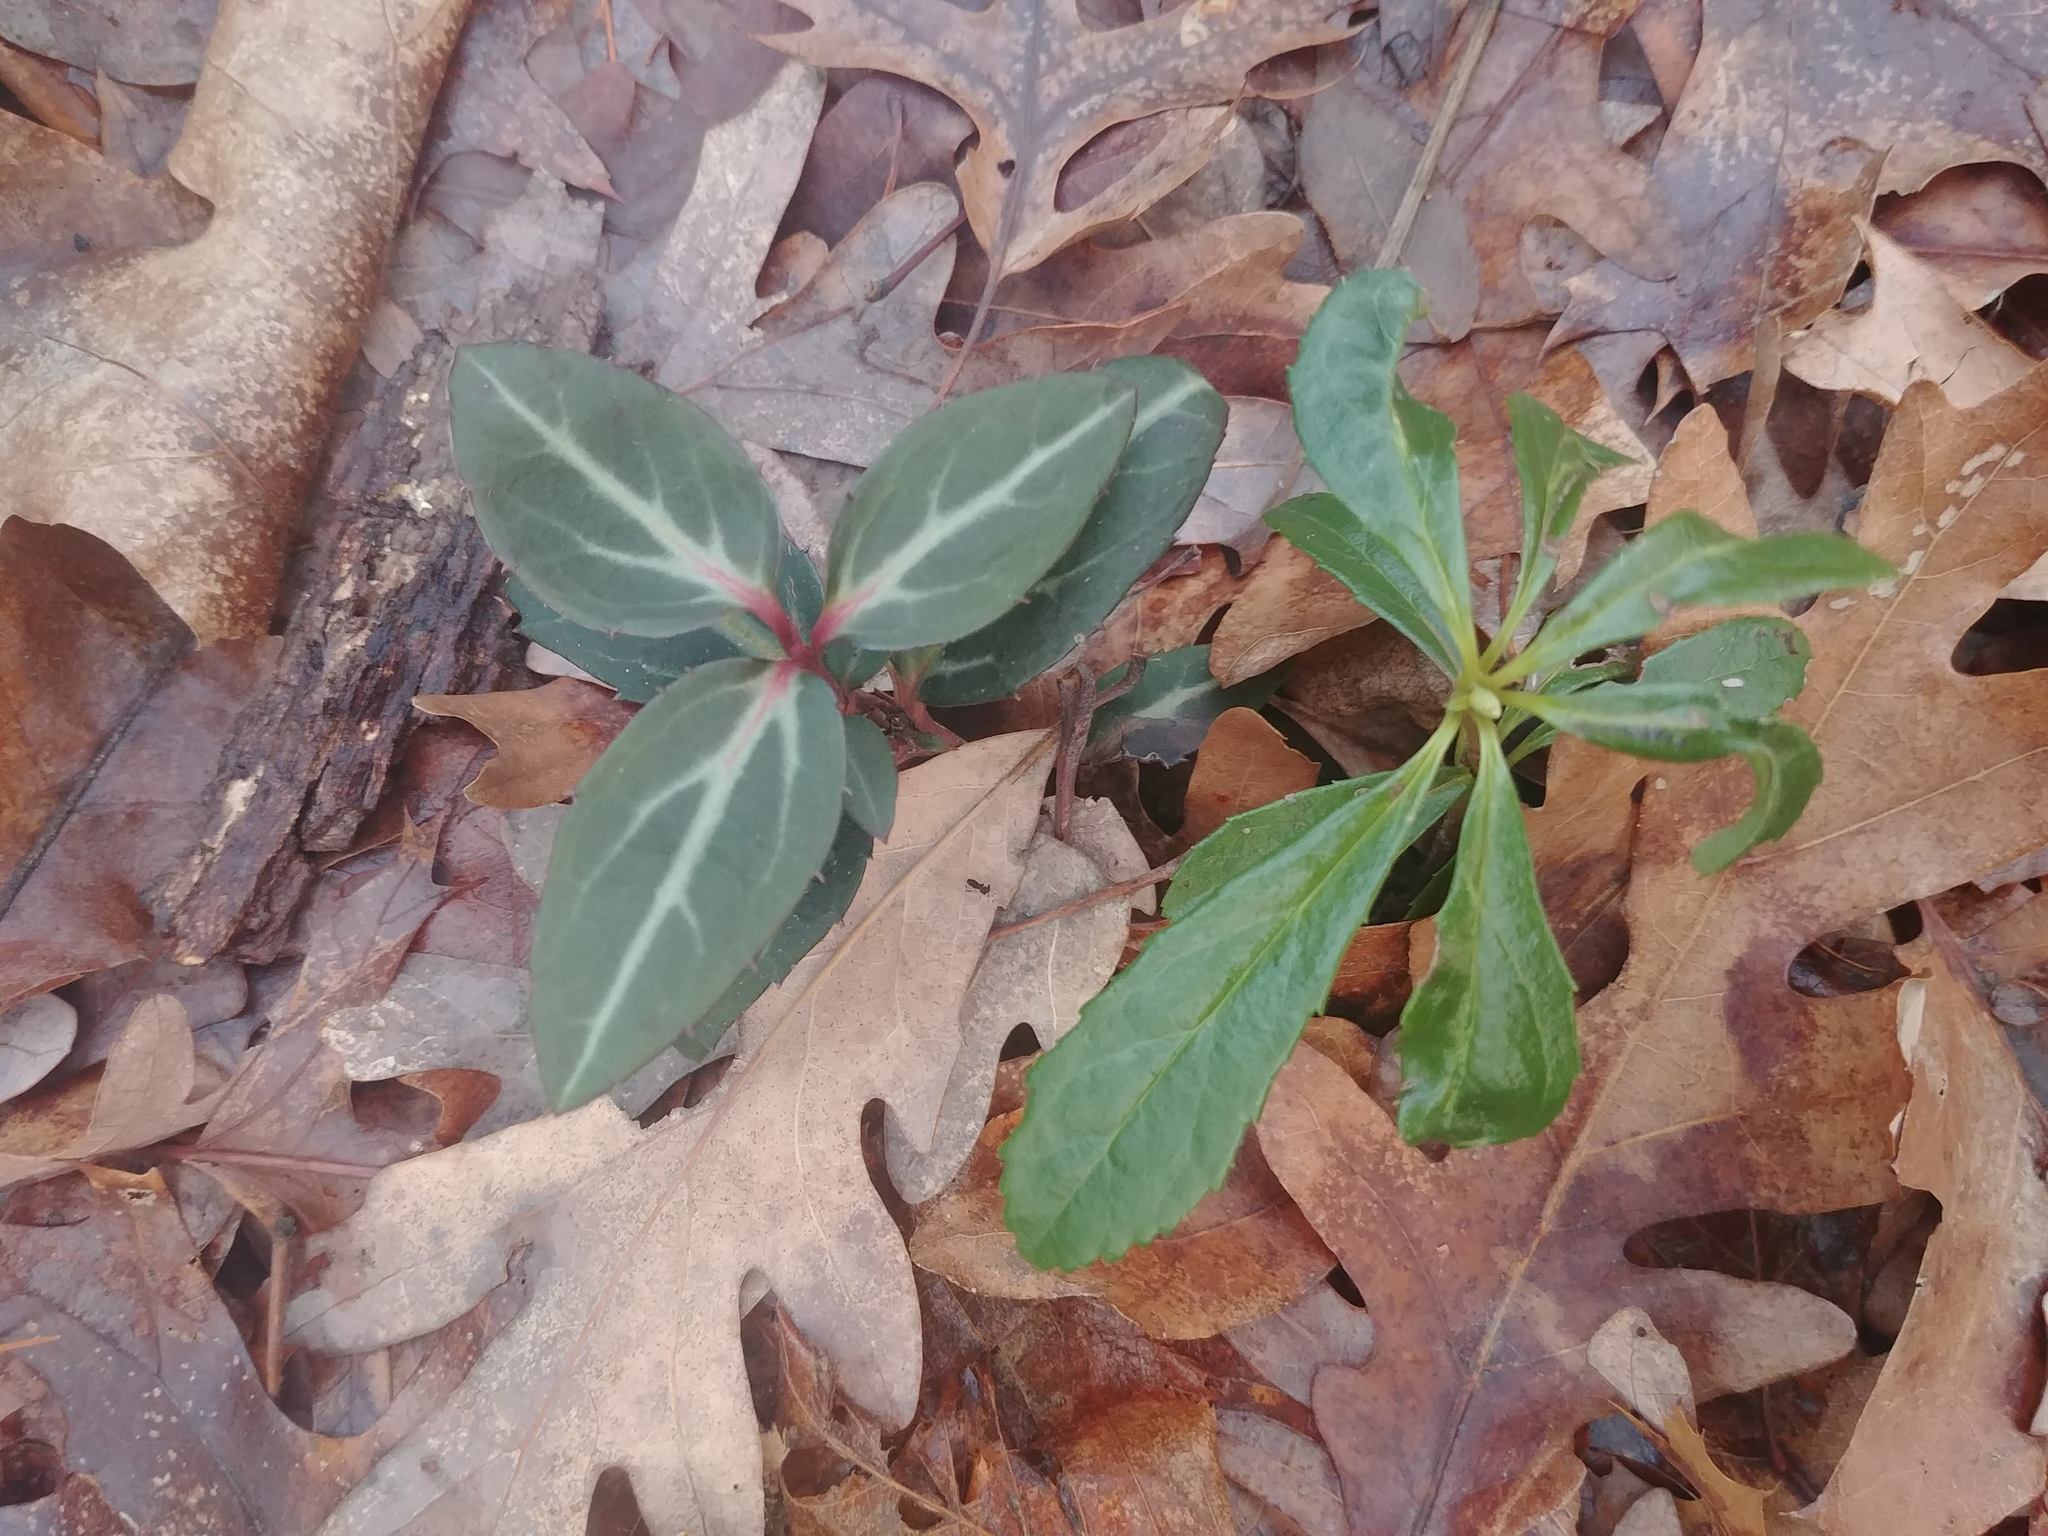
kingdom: Plantae
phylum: Tracheophyta
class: Magnoliopsida
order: Ericales
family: Ericaceae
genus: Chimaphila
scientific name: Chimaphila maculata
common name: Spotted pipsissewa
